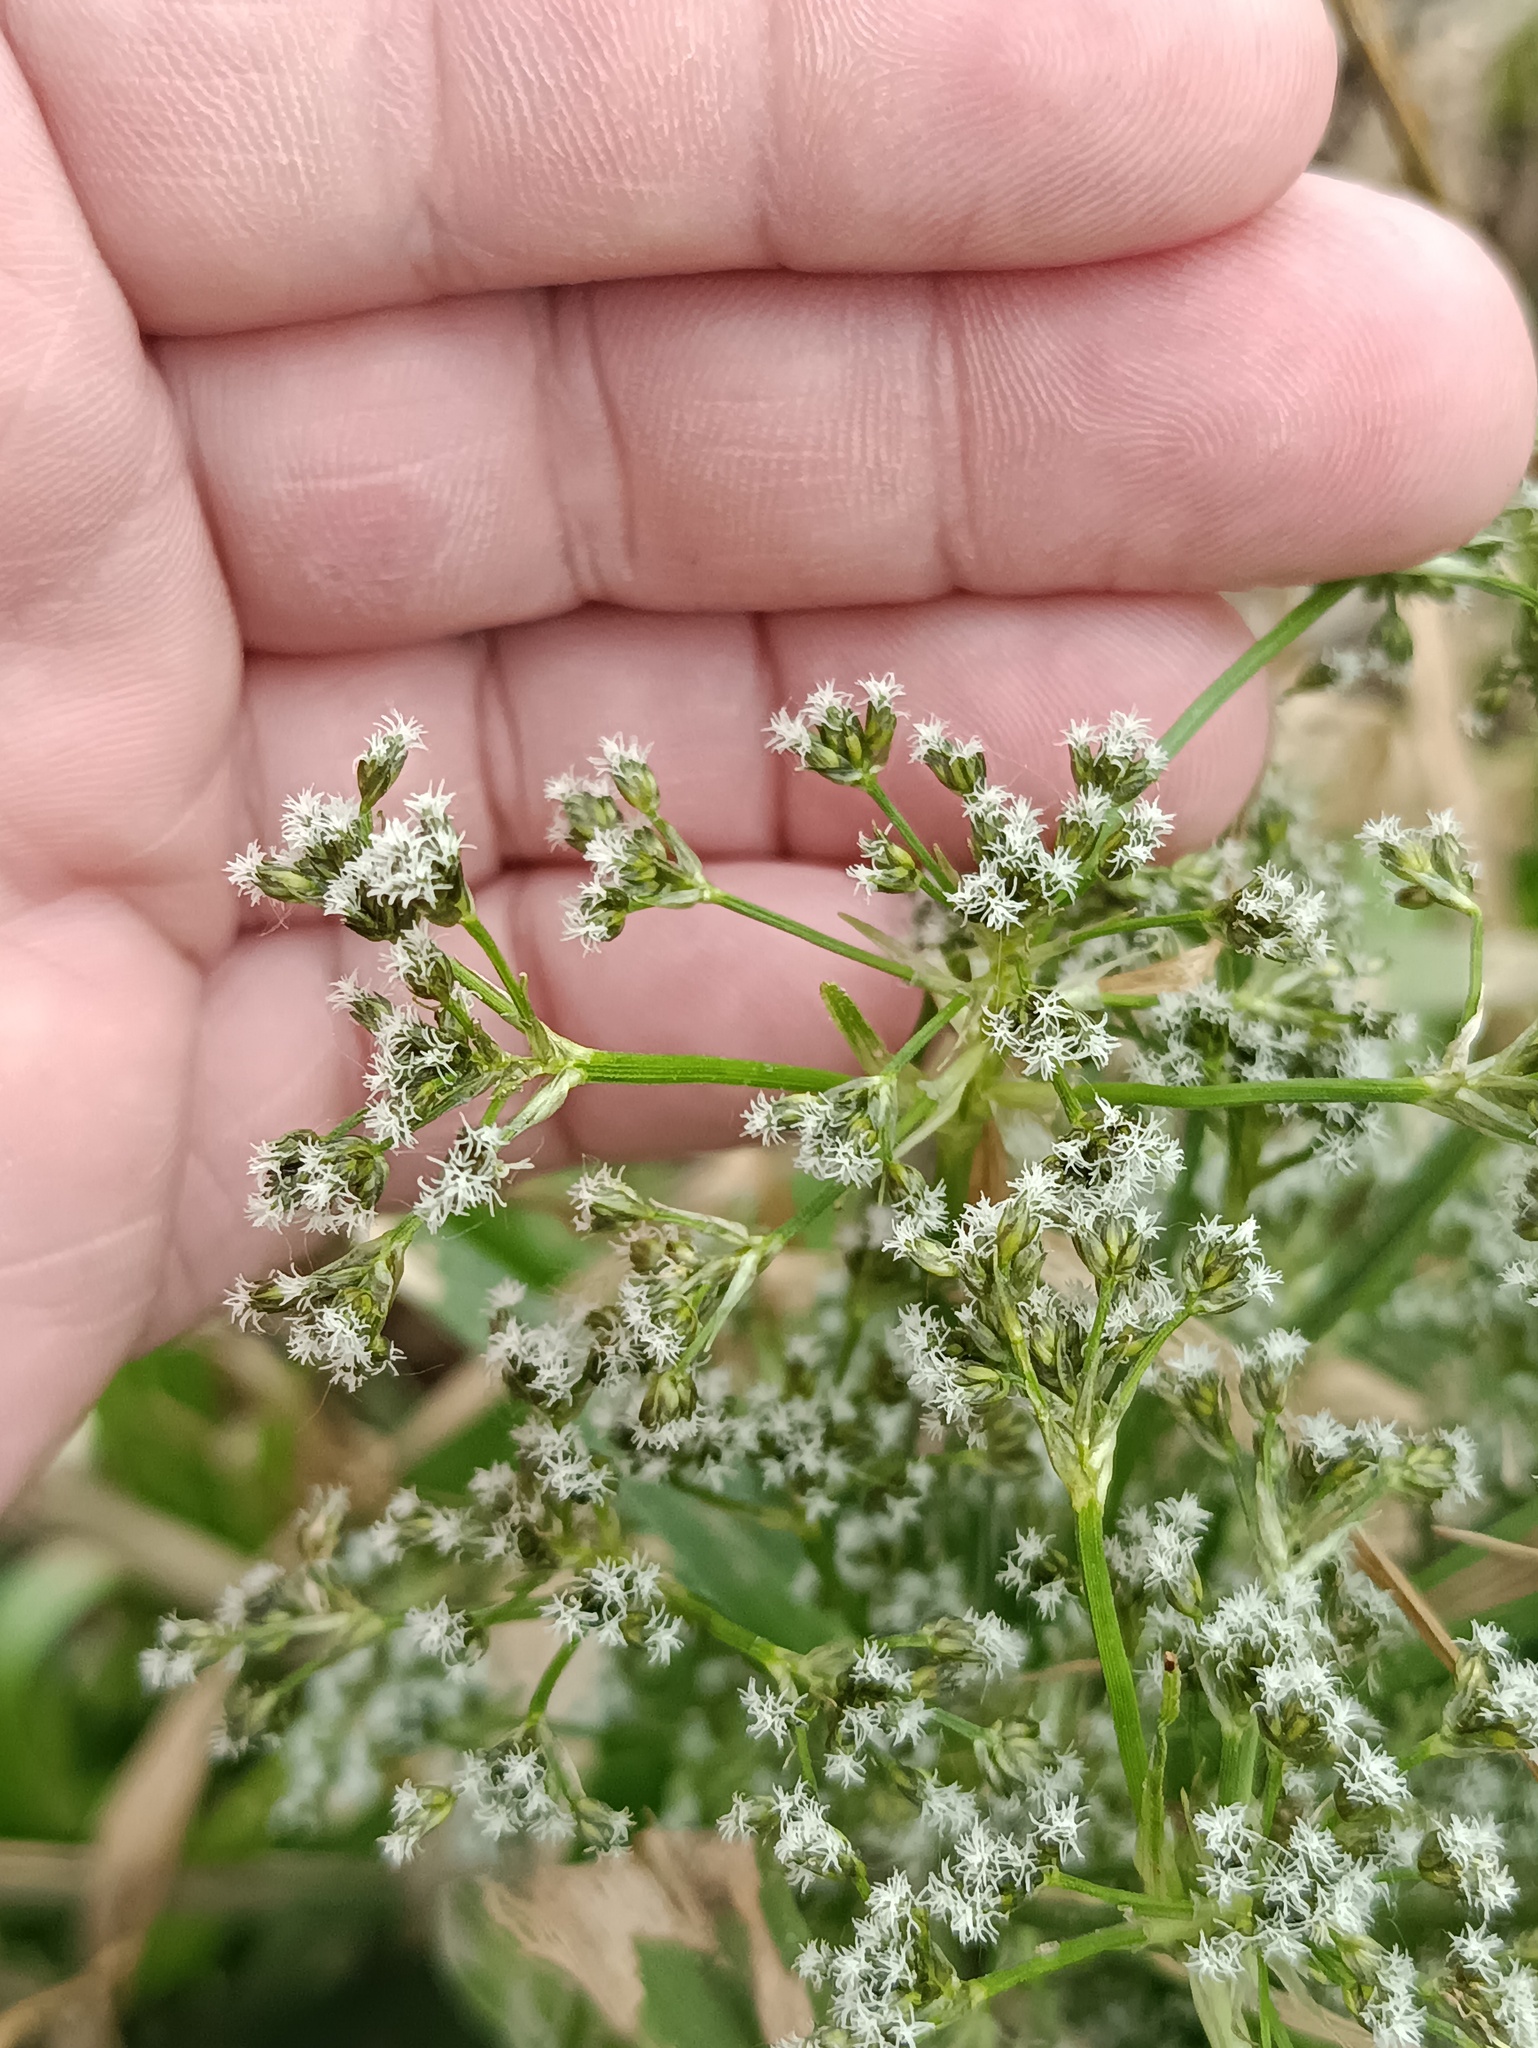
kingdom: Plantae
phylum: Tracheophyta
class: Liliopsida
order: Poales
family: Cyperaceae
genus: Scirpus
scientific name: Scirpus sylvaticus
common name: Wood club-rush
